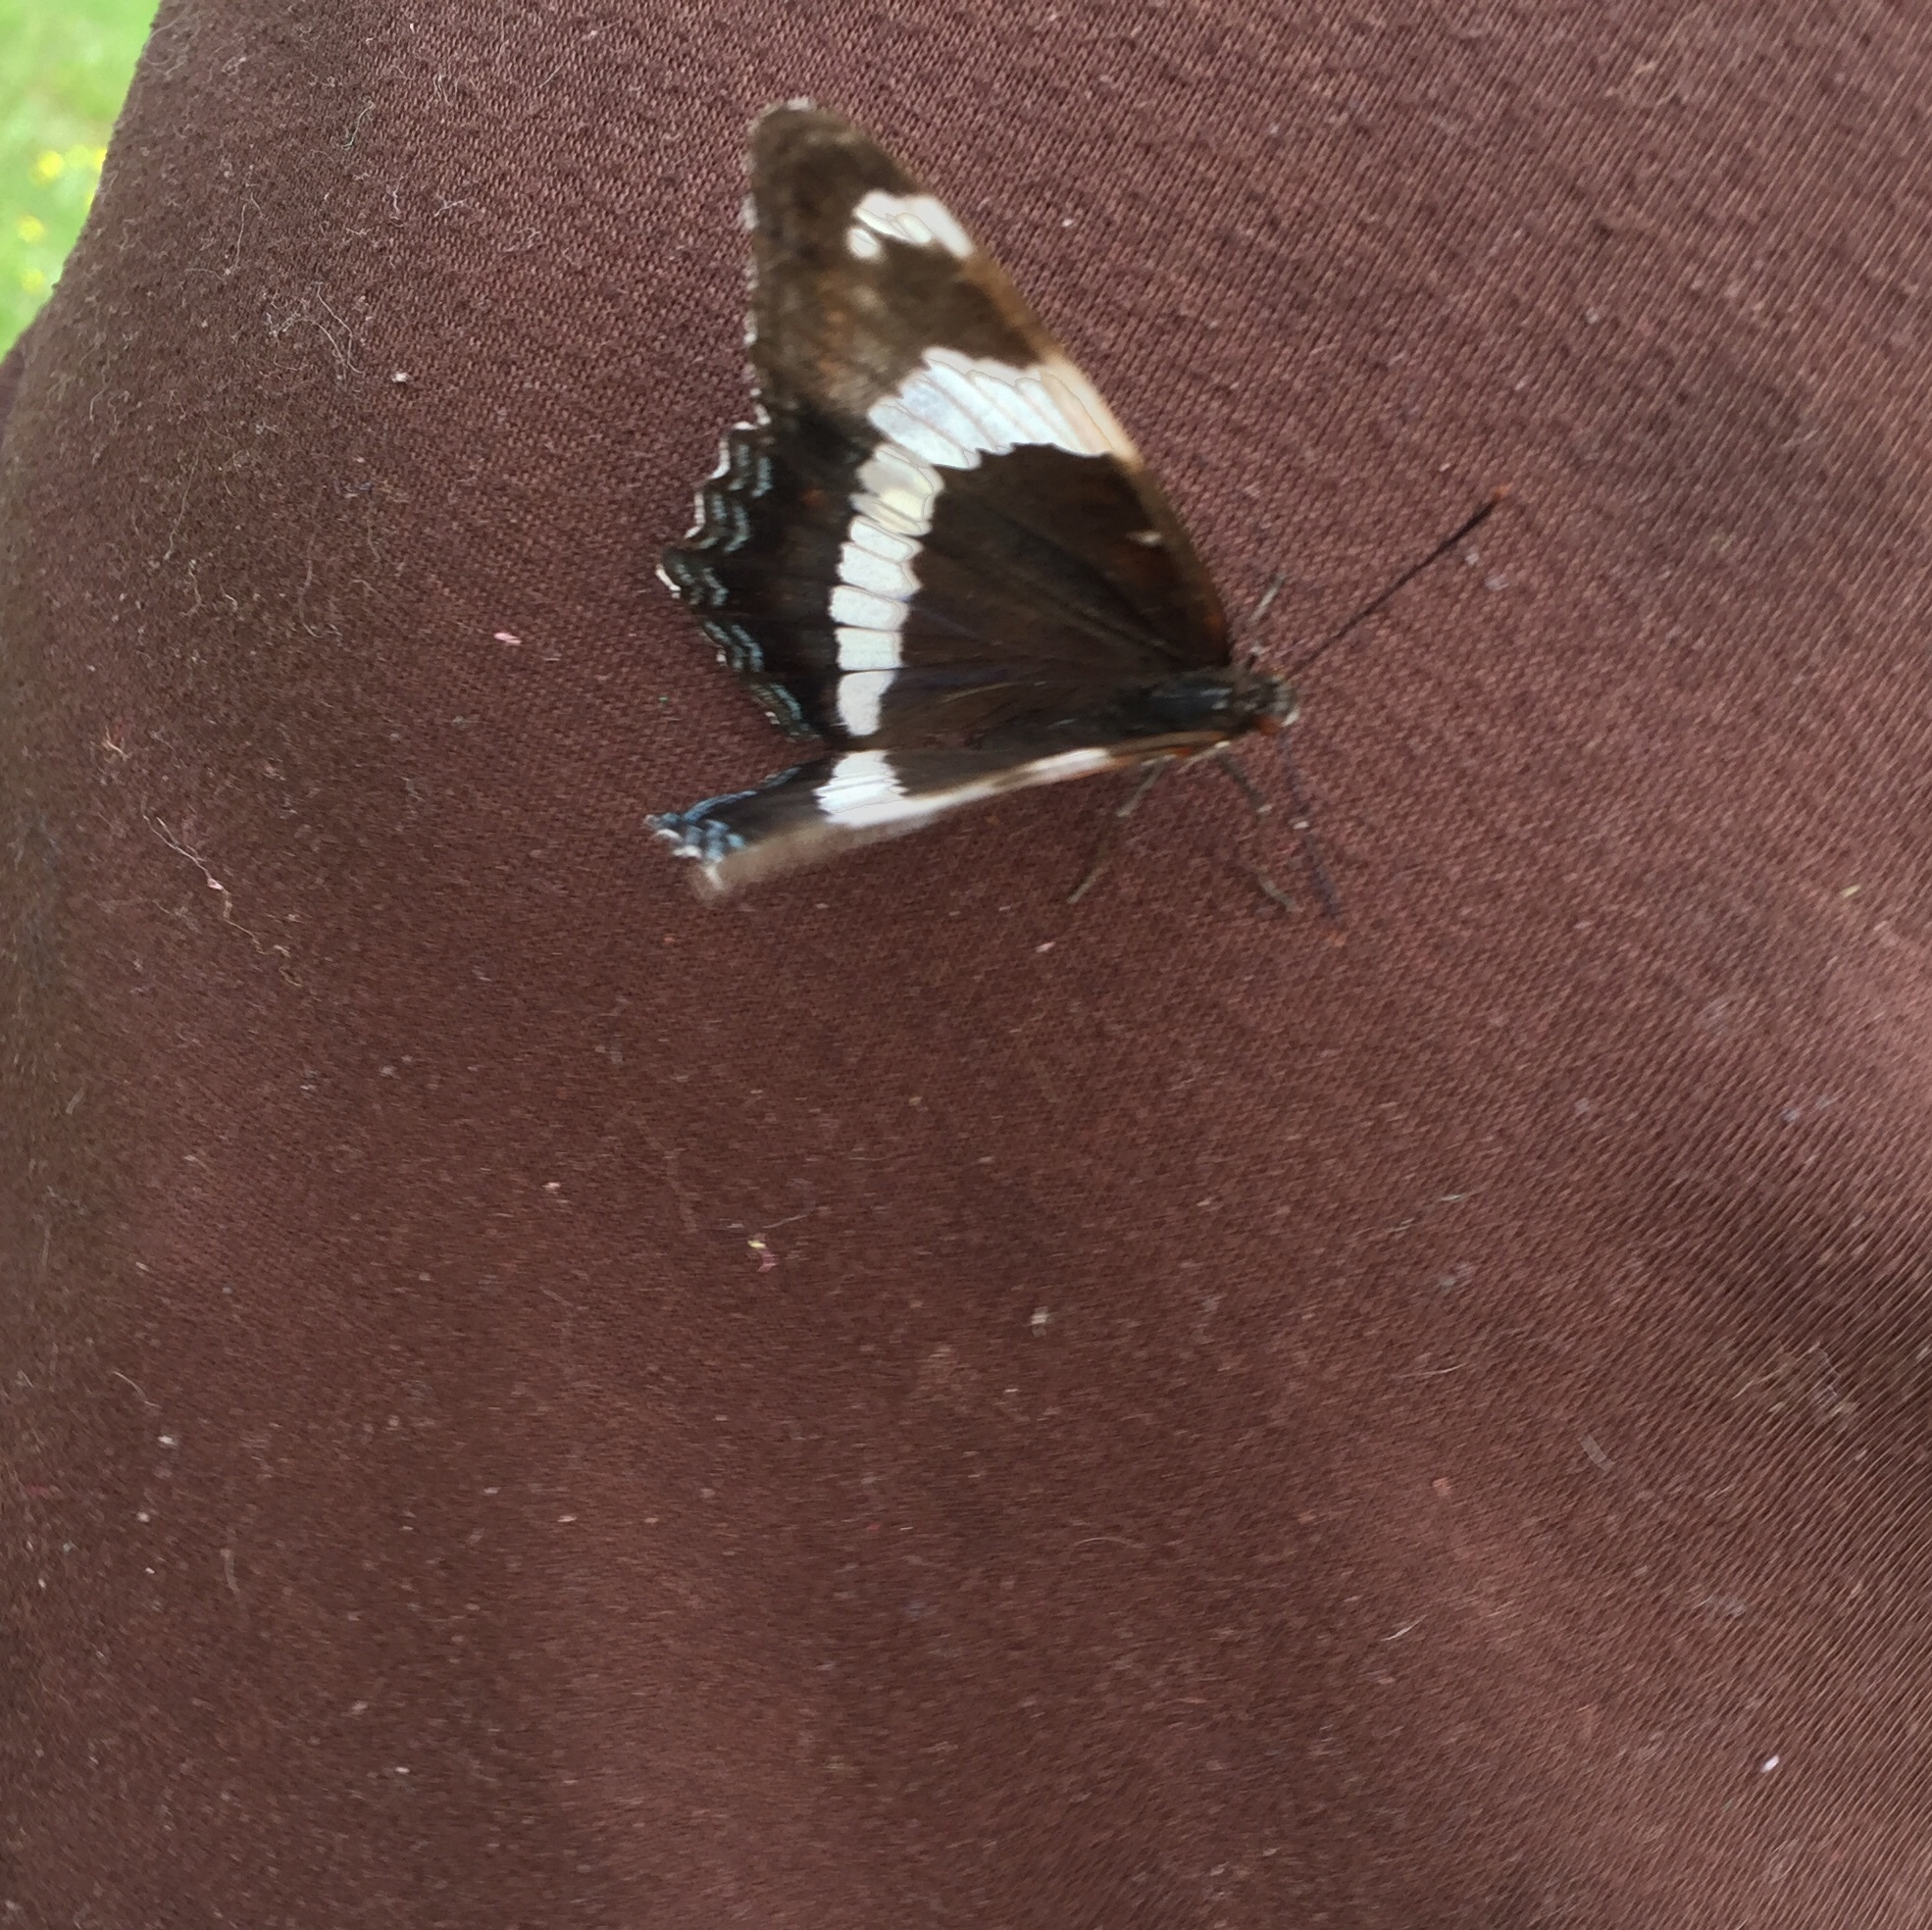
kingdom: Animalia
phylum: Arthropoda
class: Insecta
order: Lepidoptera
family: Nymphalidae
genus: Limenitis
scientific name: Limenitis arthemis
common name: Red-spotted admiral
